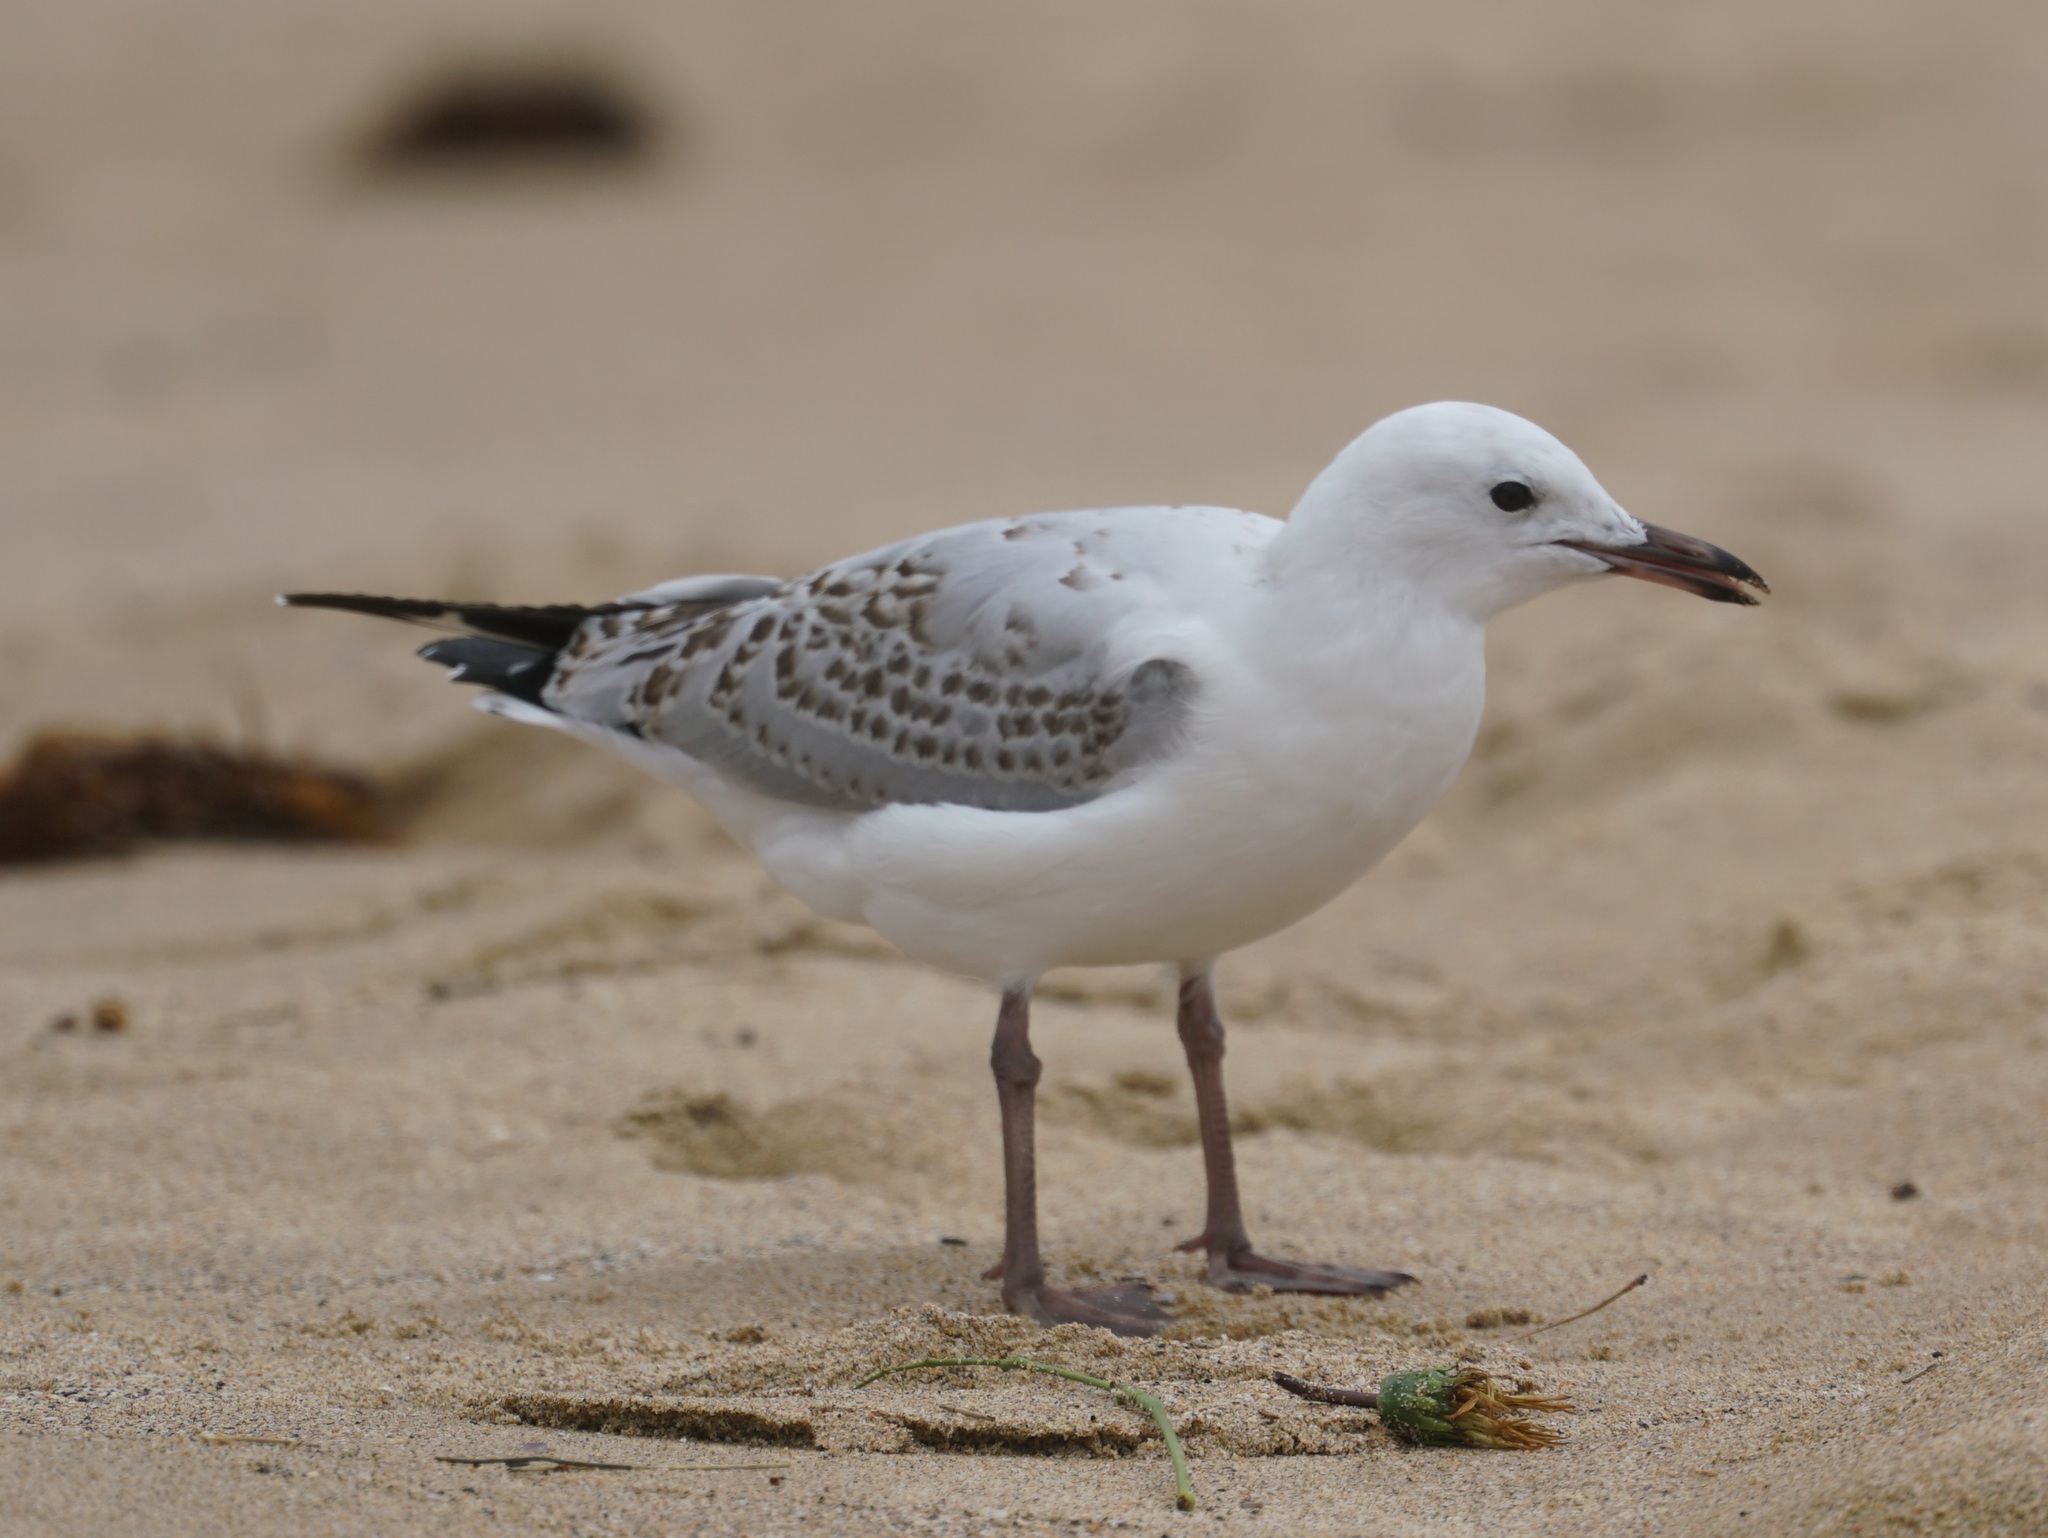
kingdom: Animalia
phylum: Chordata
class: Aves
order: Charadriiformes
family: Laridae
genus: Chroicocephalus
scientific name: Chroicocephalus novaehollandiae
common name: Silver gull
